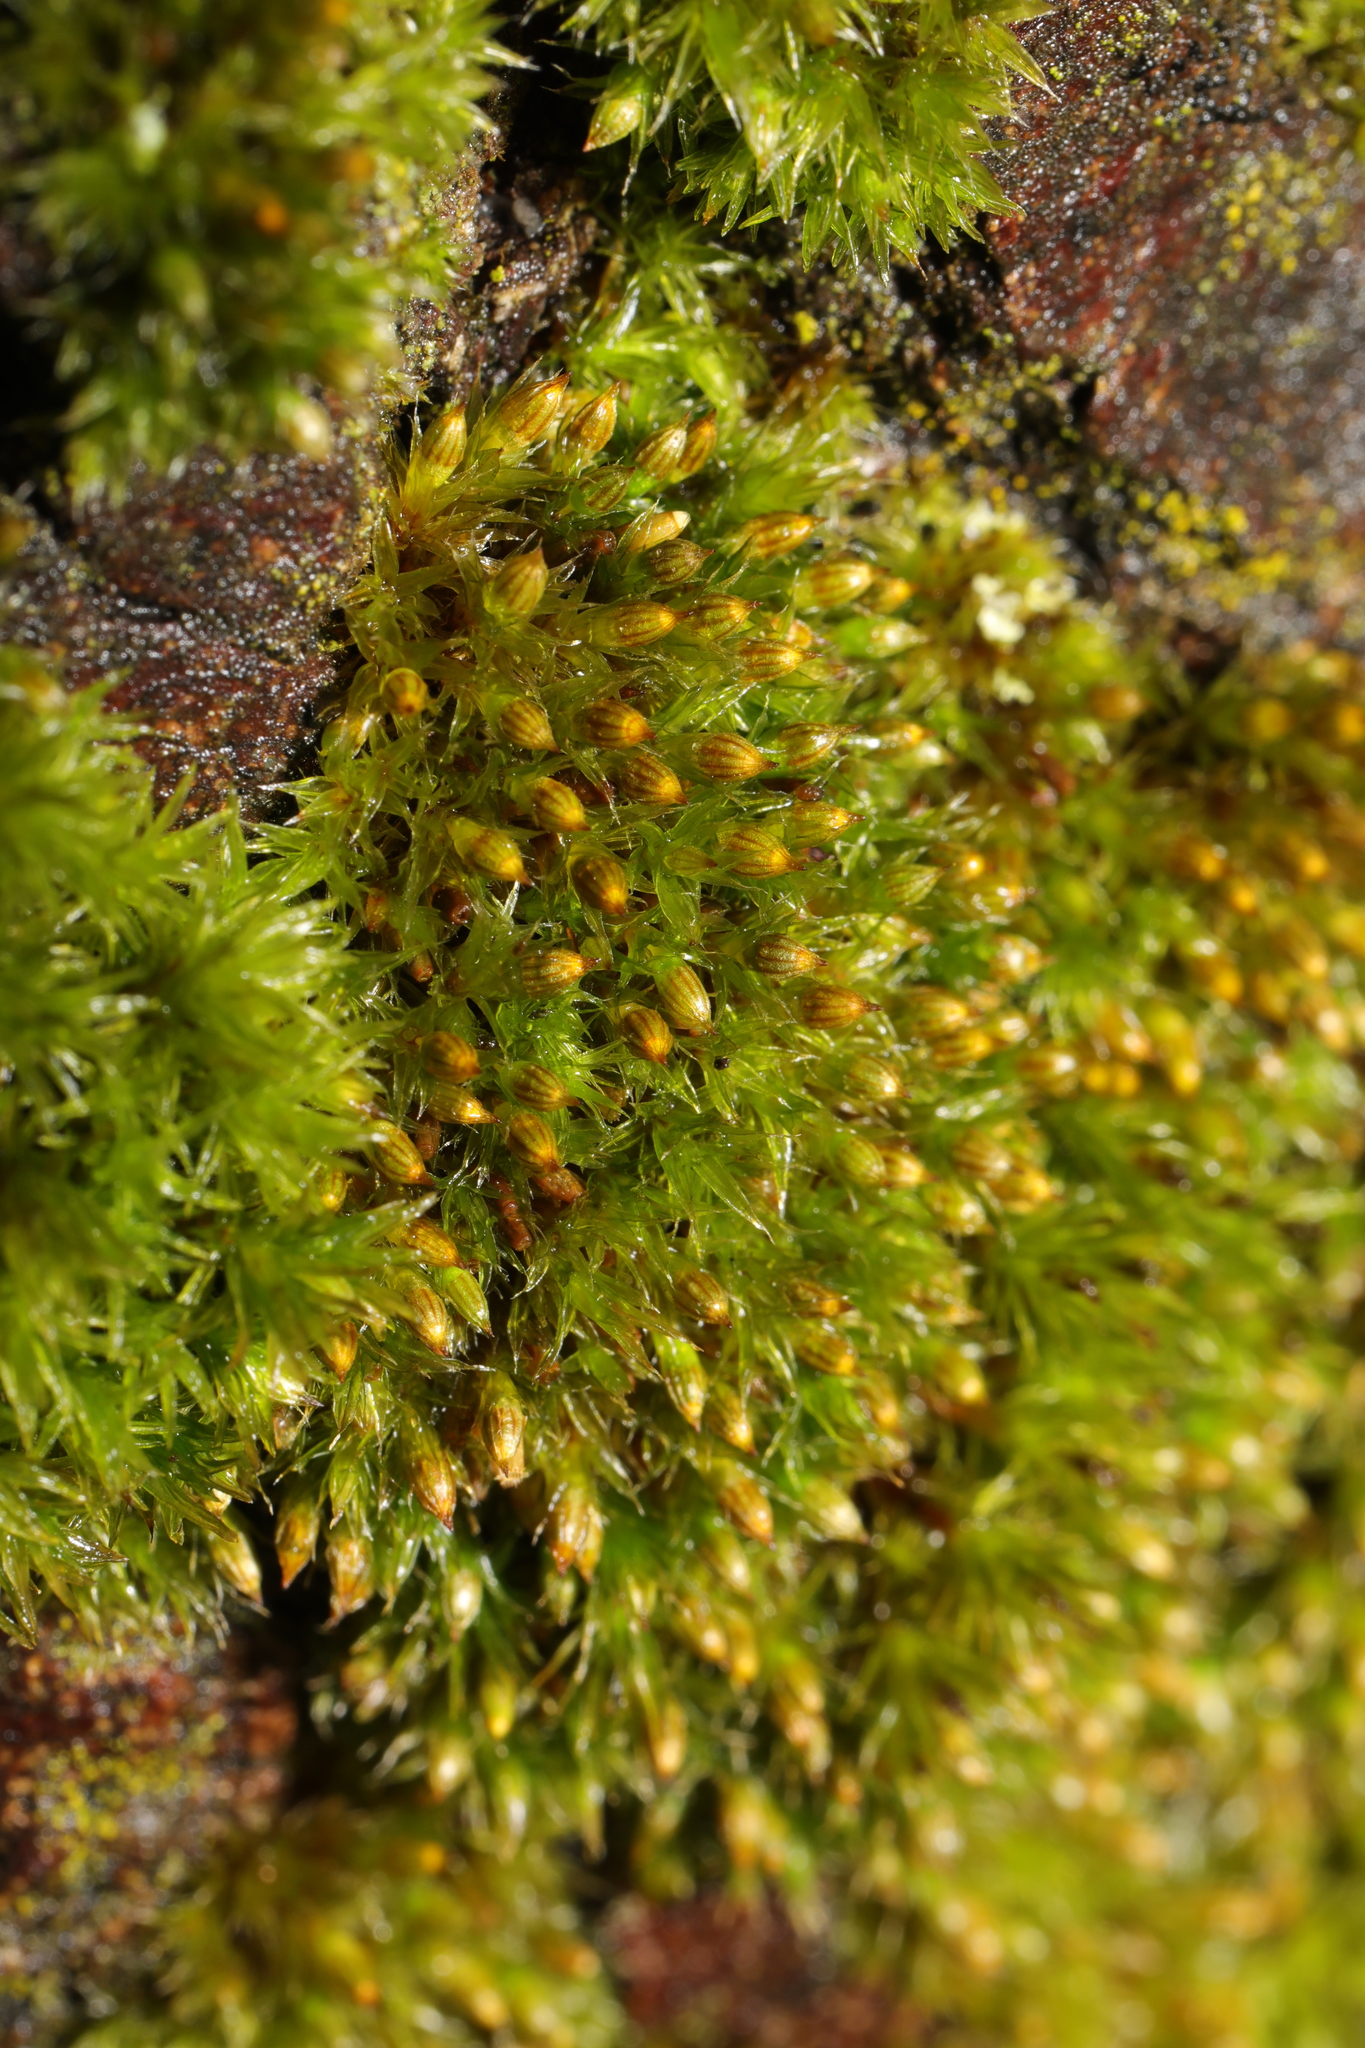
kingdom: Plantae
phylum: Bryophyta
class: Bryopsida
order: Orthotrichales
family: Orthotrichaceae
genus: Orthotrichum
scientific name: Orthotrichum cupulatum
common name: Hooded bristle-moss
